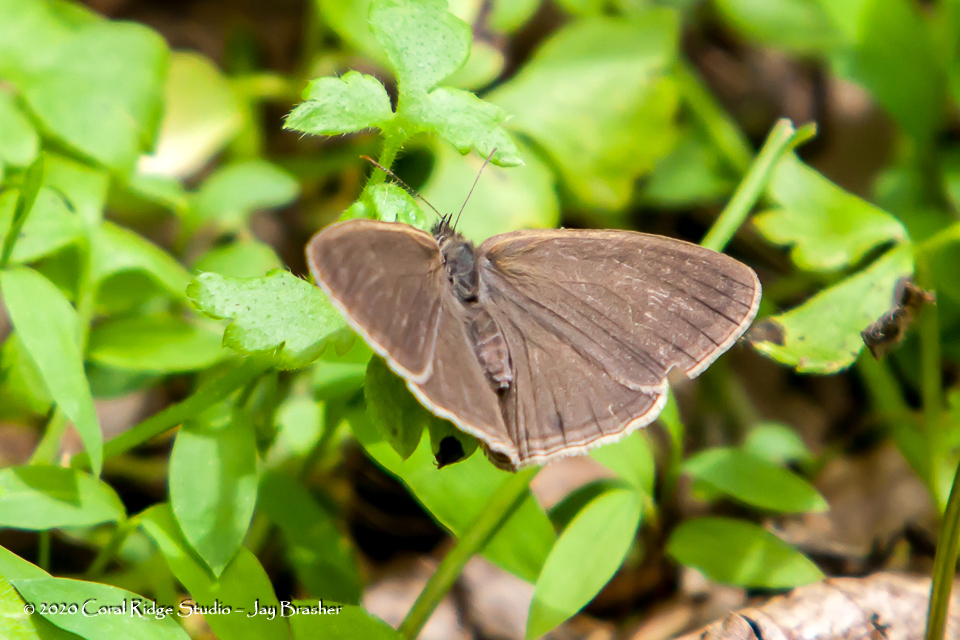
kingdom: Animalia
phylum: Arthropoda
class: Insecta
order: Lepidoptera
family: Nymphalidae
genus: Hermeuptychia
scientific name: Hermeuptychia hermes
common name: Hermes satyr
